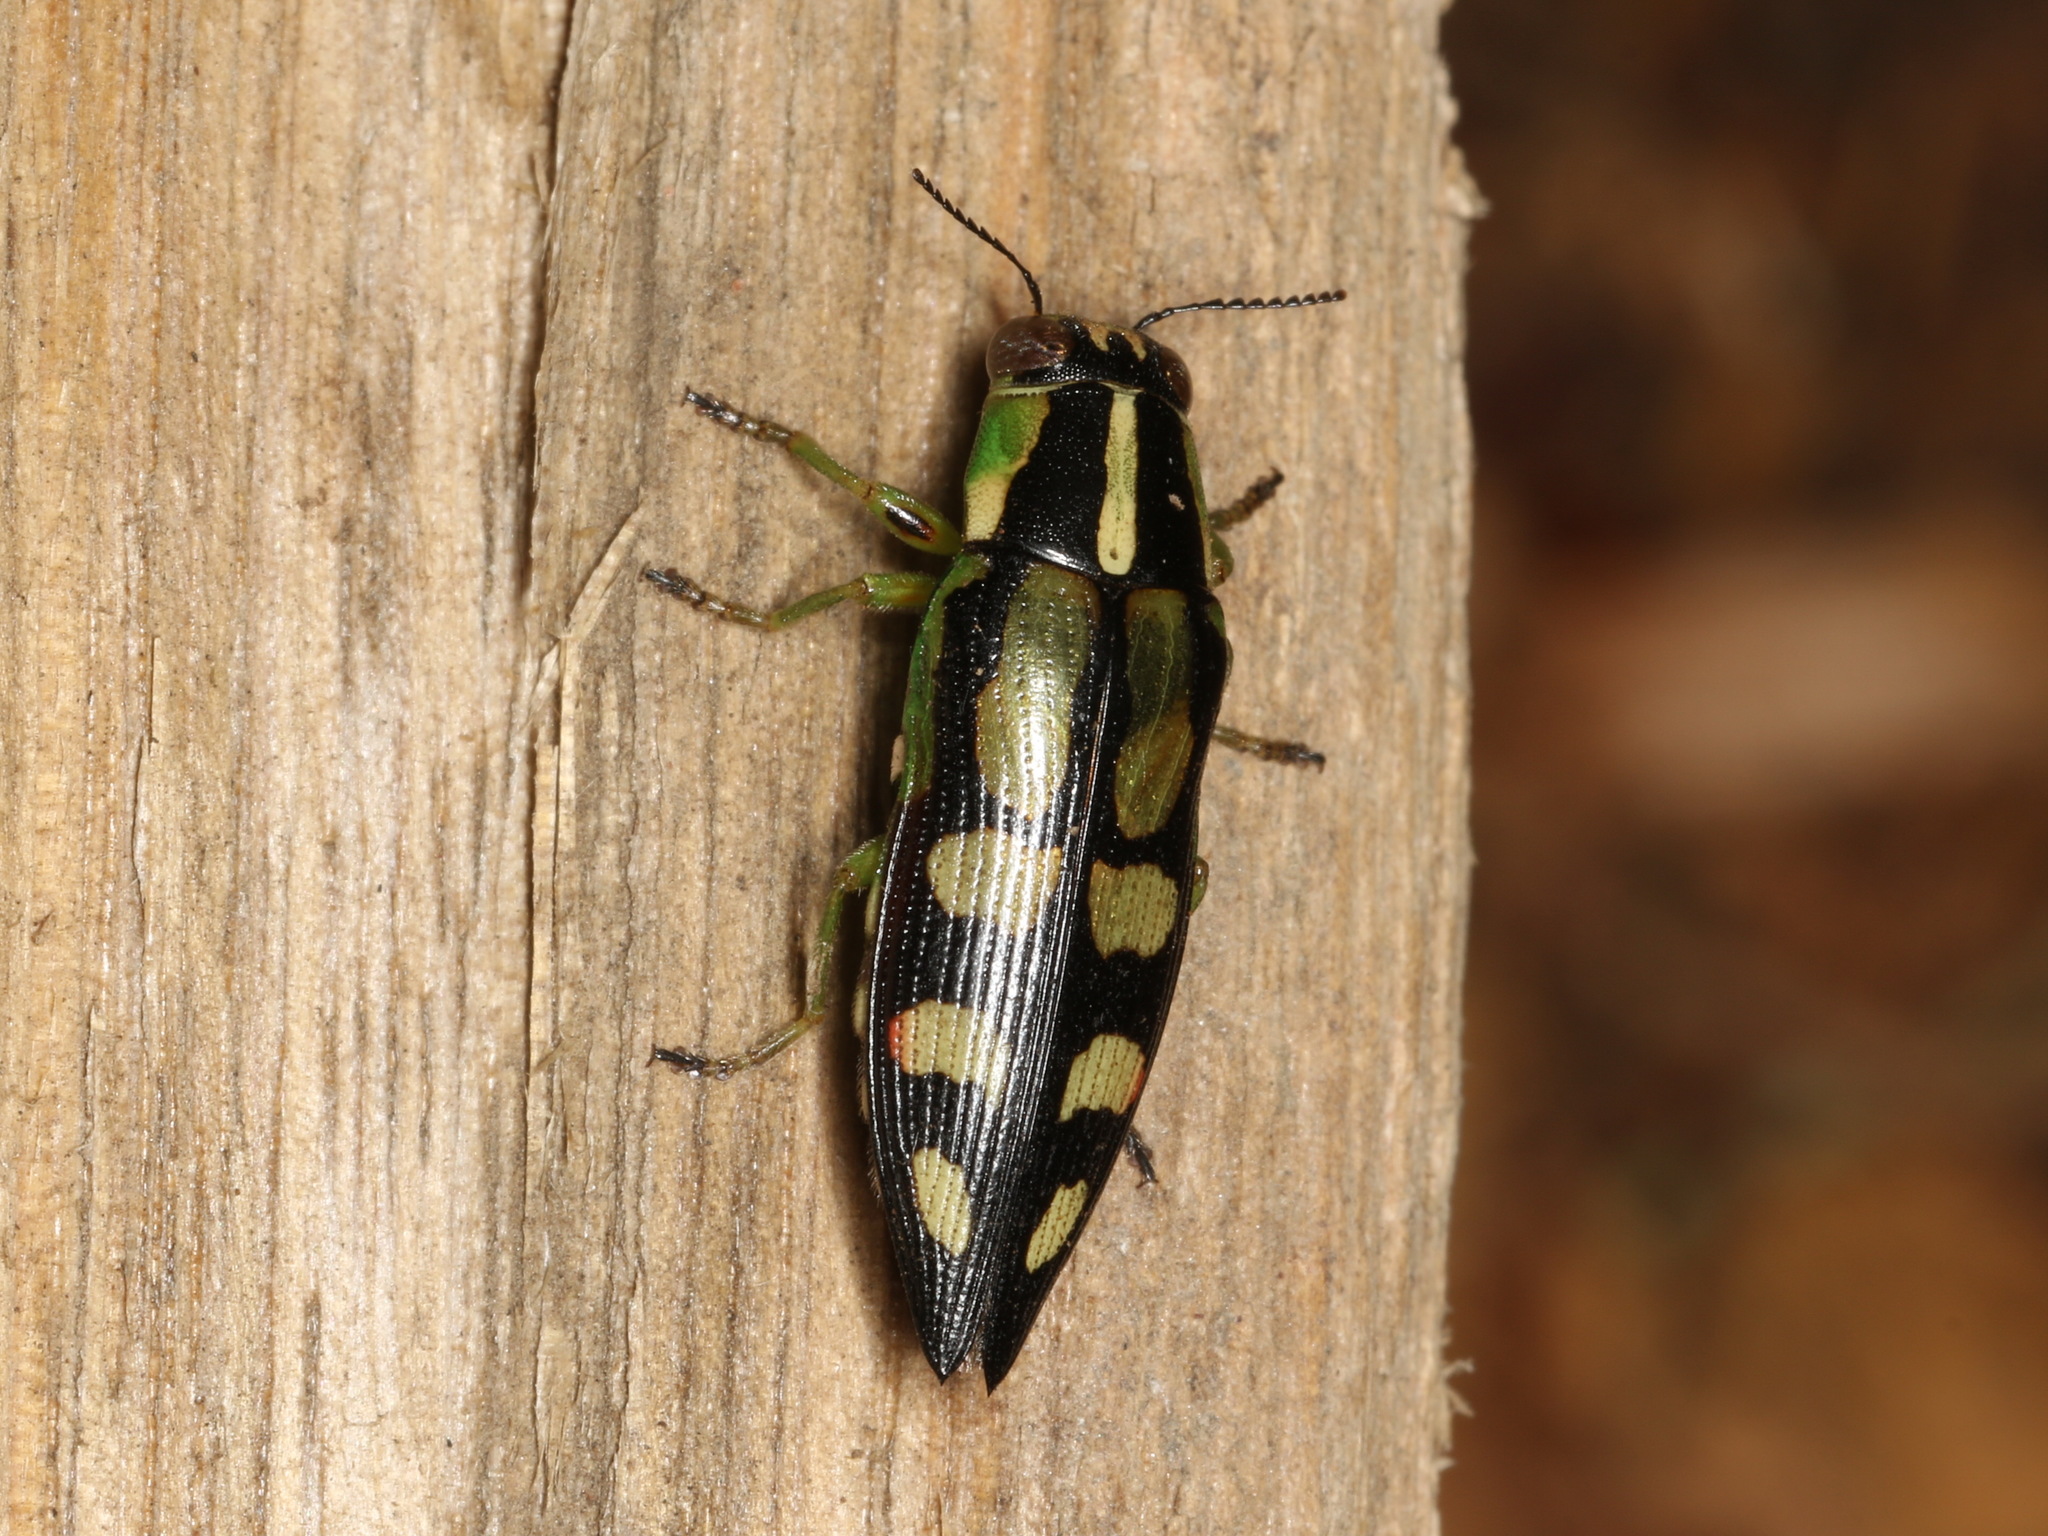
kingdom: Animalia
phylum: Arthropoda
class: Insecta
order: Coleoptera
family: Buprestidae
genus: Diadoxus
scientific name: Diadoxus erythrurus
